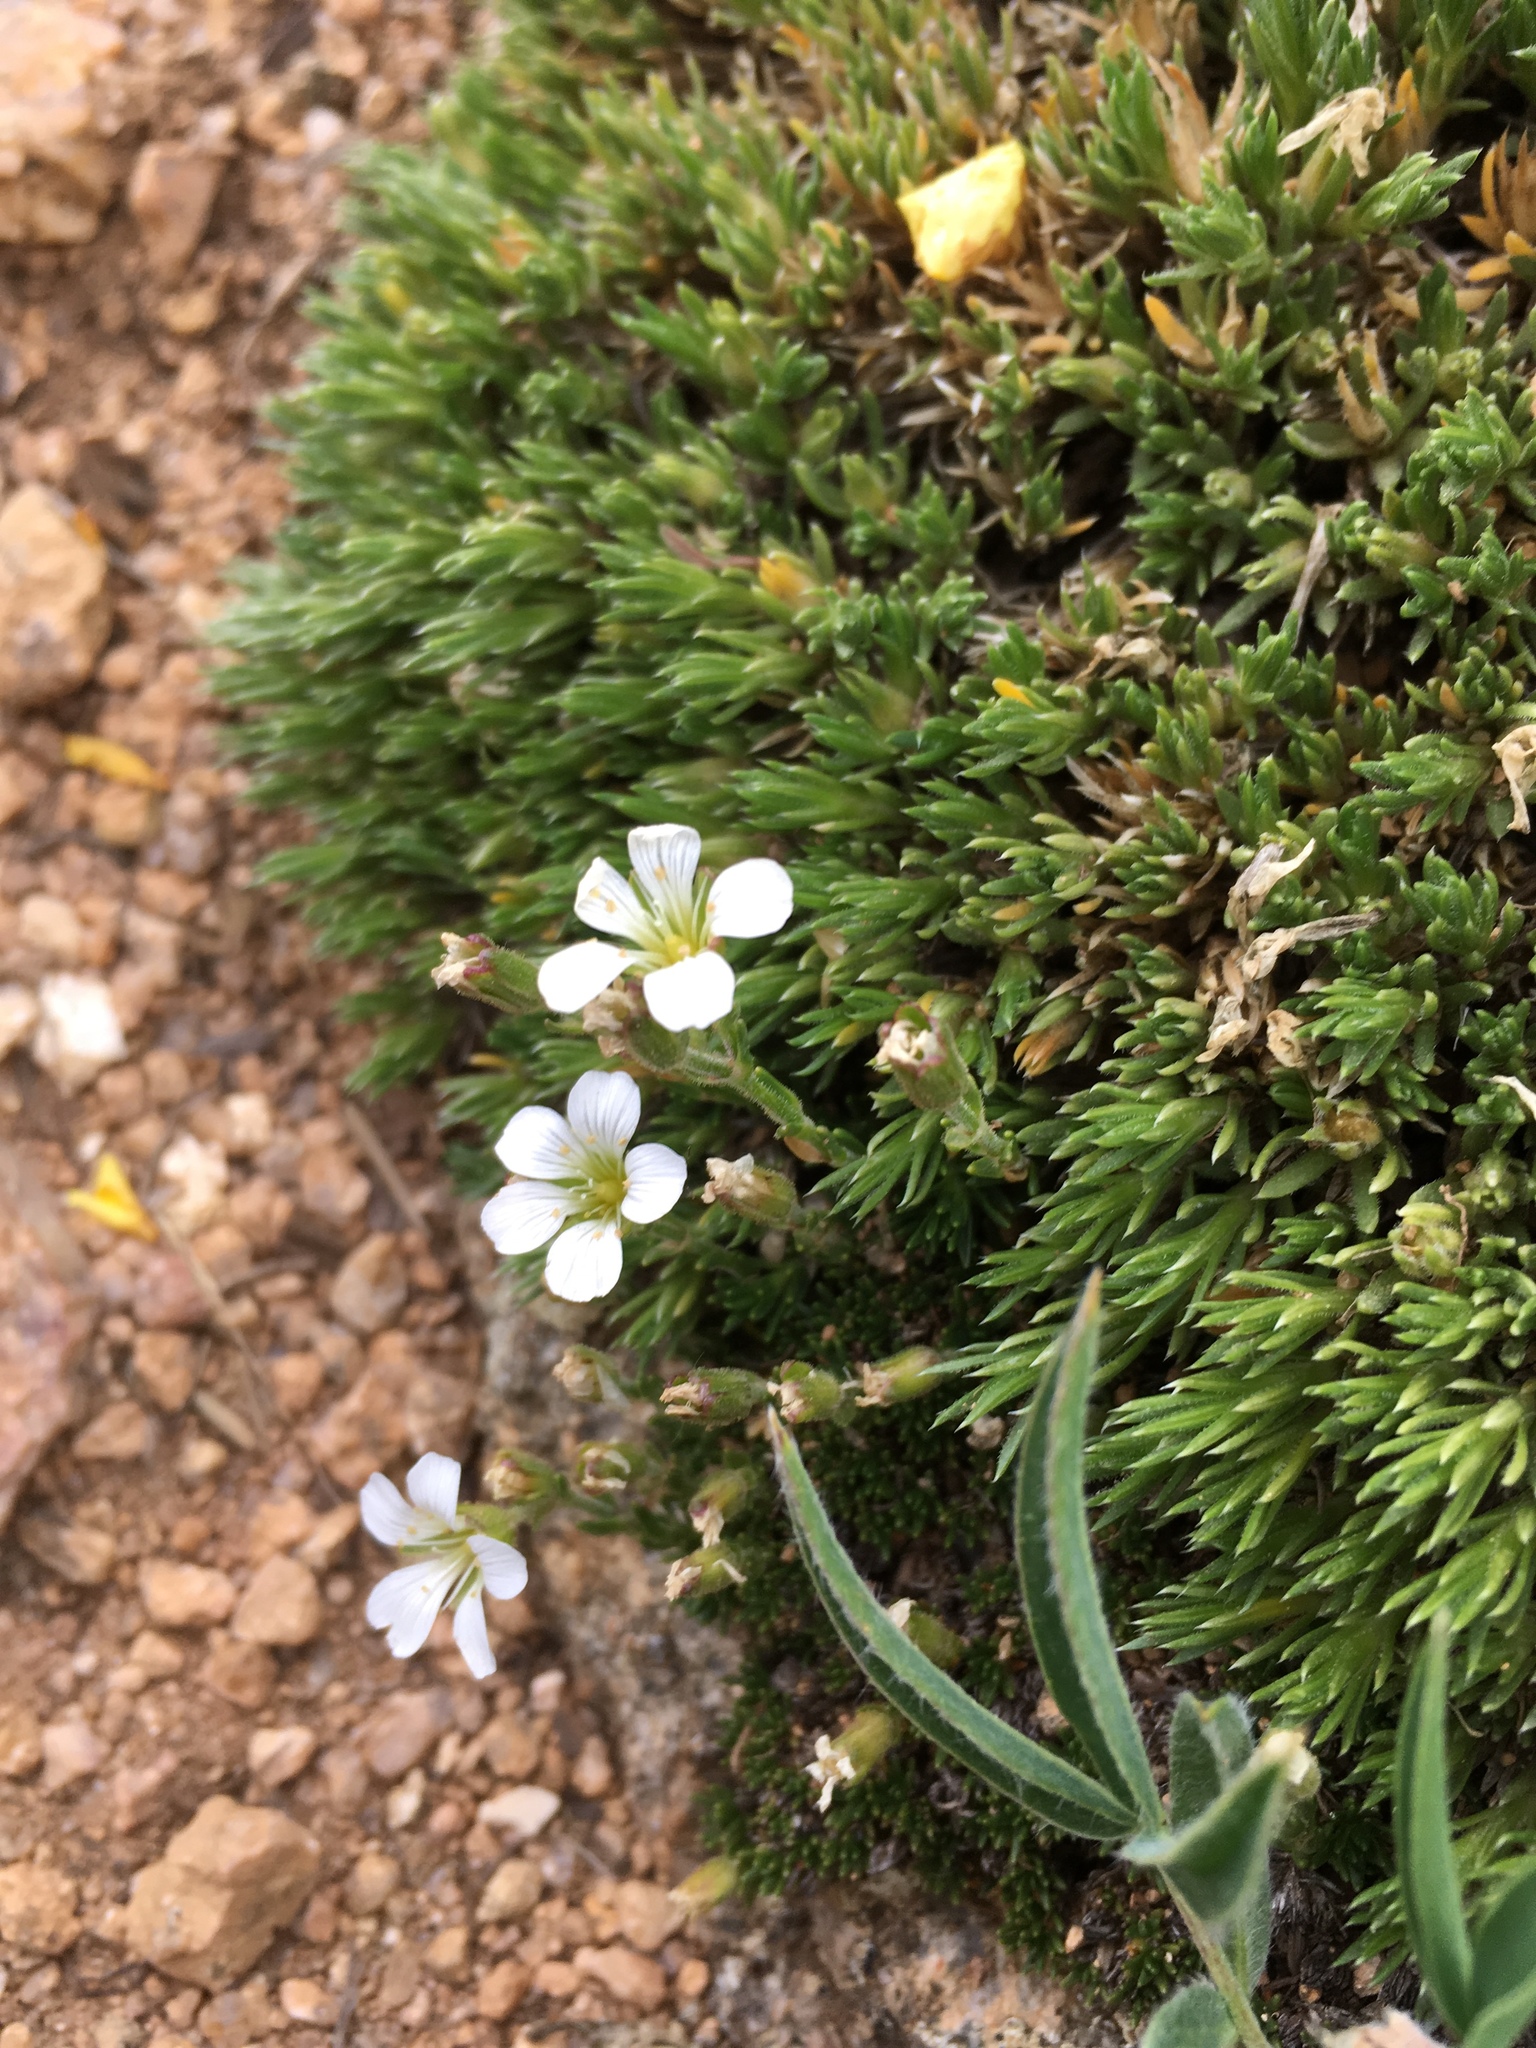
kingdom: Plantae
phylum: Tracheophyta
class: Magnoliopsida
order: Caryophyllales
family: Caryophyllaceae
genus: Cherleria
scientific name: Cherleria obtusiloba
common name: Alpine stitchwort
